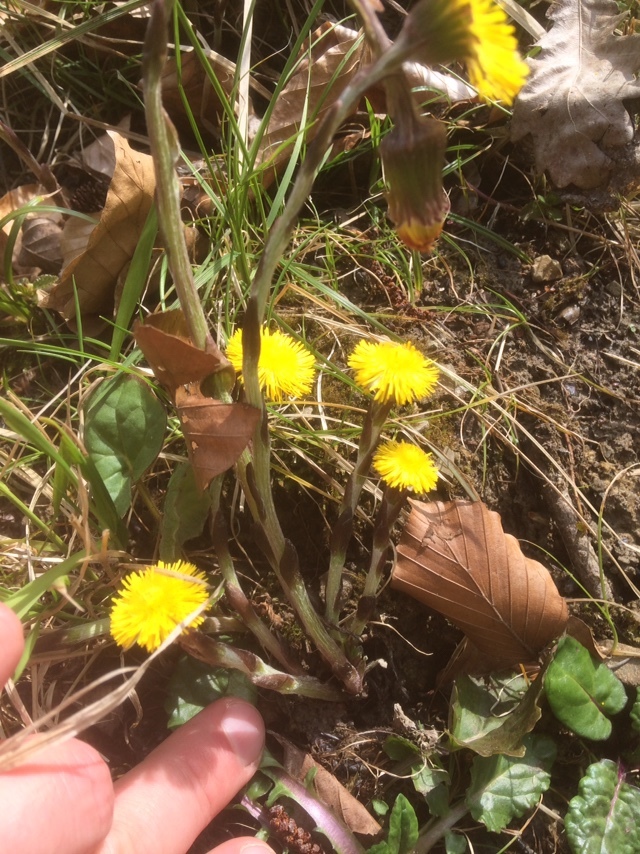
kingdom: Plantae
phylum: Tracheophyta
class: Magnoliopsida
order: Asterales
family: Asteraceae
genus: Tussilago
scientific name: Tussilago farfara
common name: Coltsfoot
